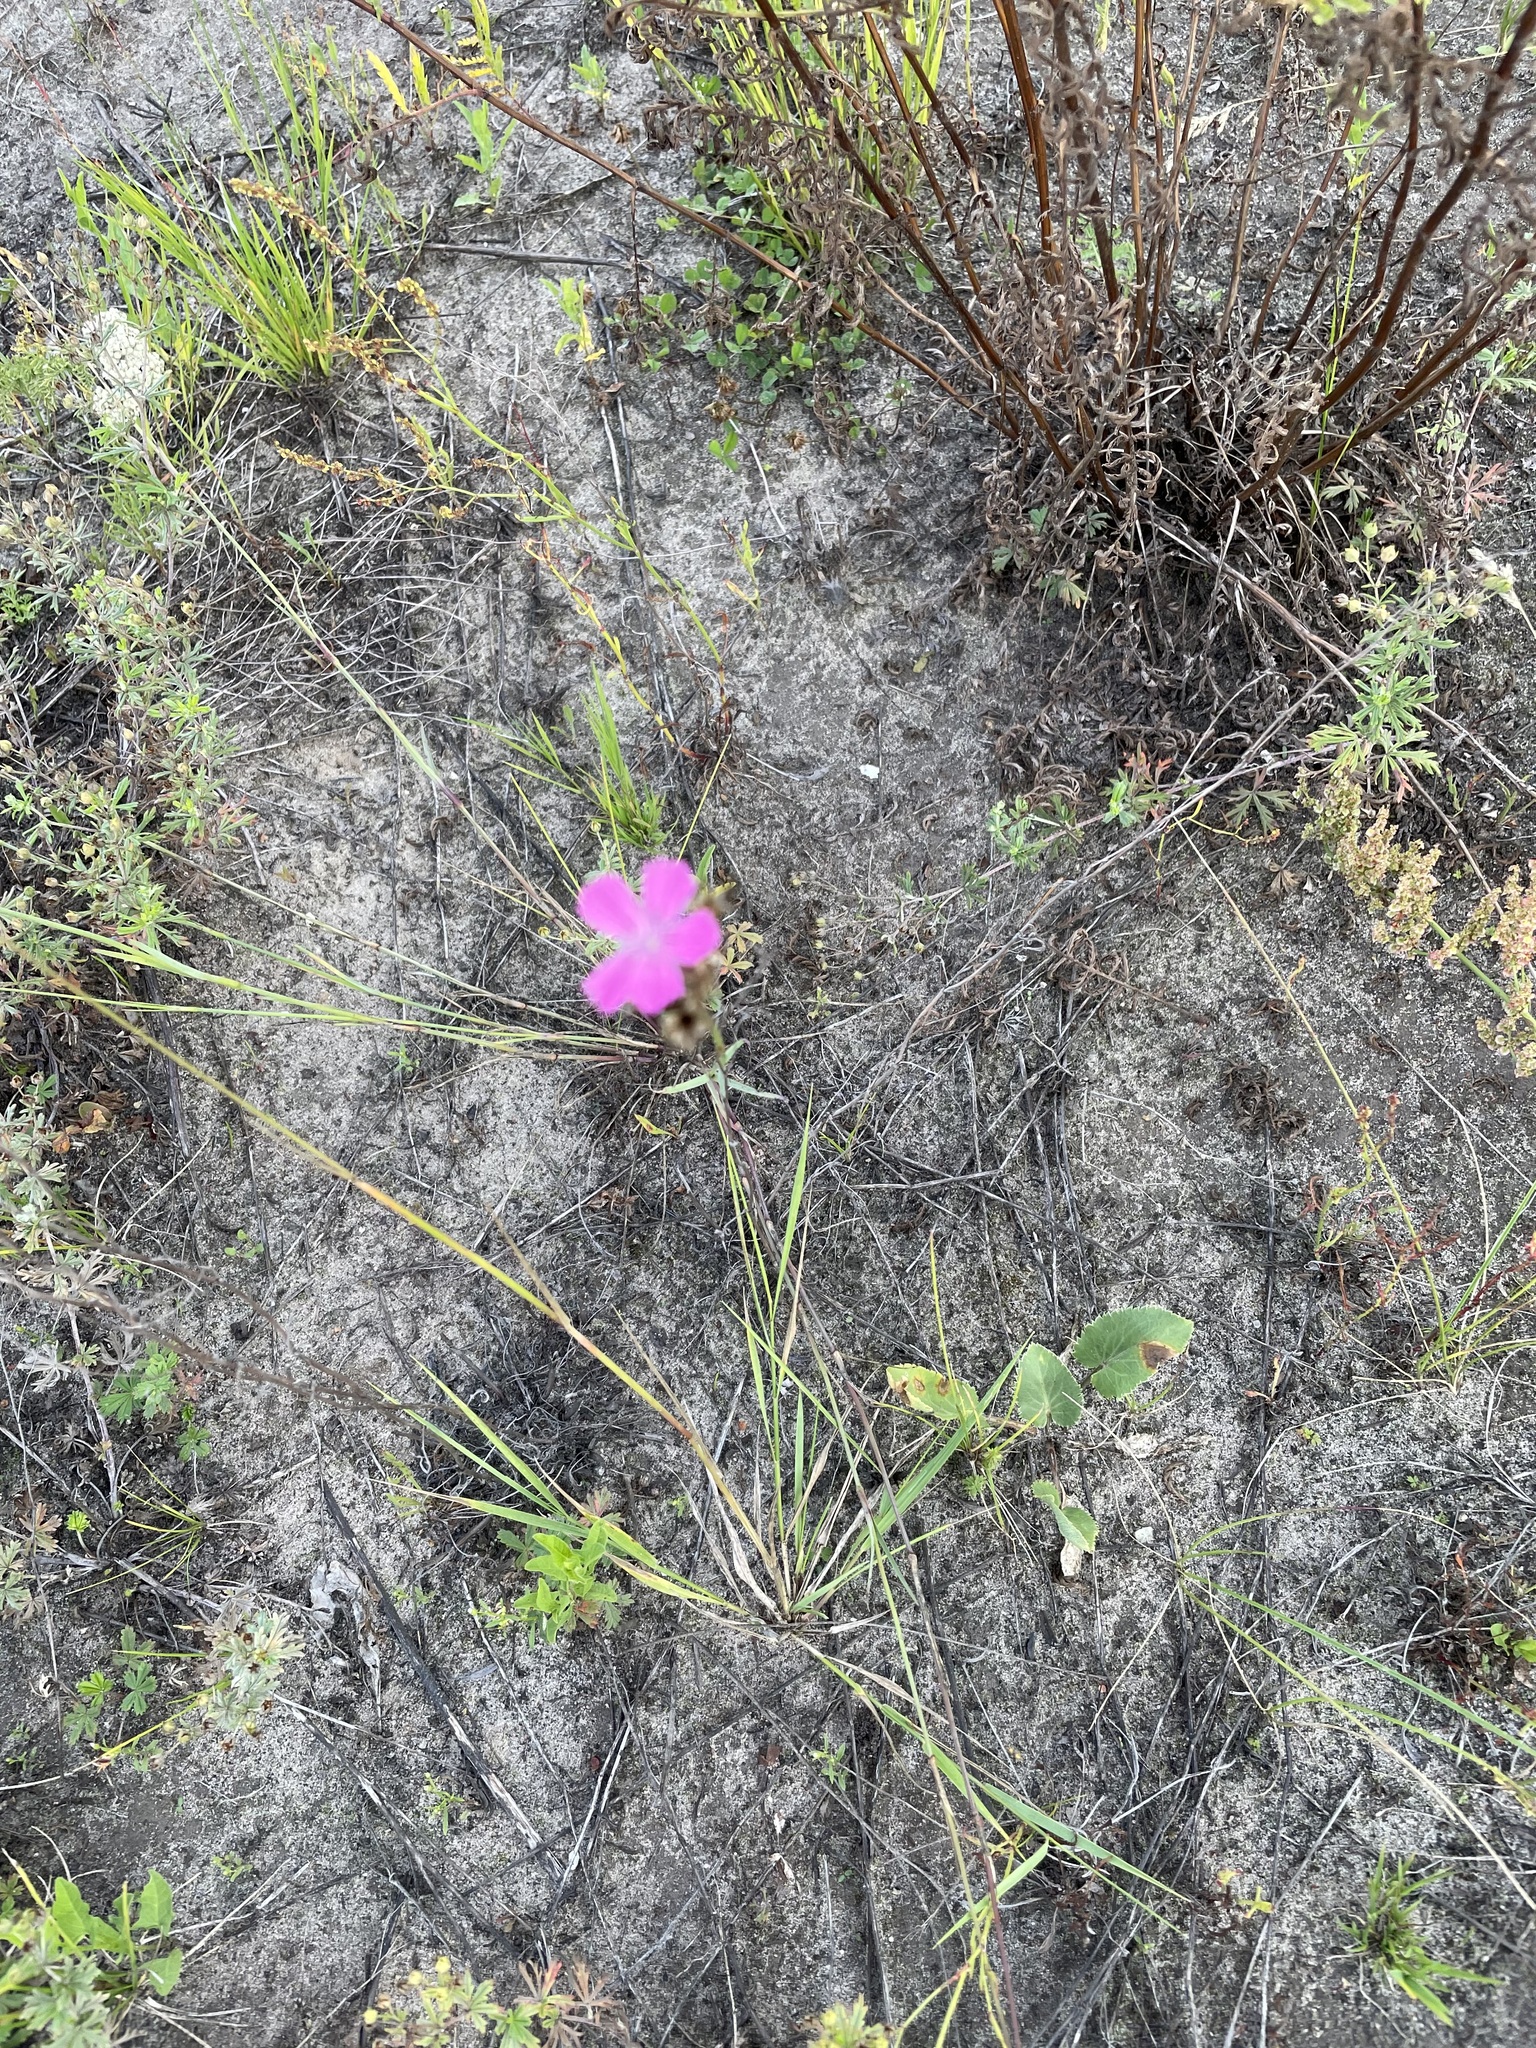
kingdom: Plantae
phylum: Tracheophyta
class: Magnoliopsida
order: Caryophyllales
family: Caryophyllaceae
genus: Dianthus
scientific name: Dianthus borbasii
